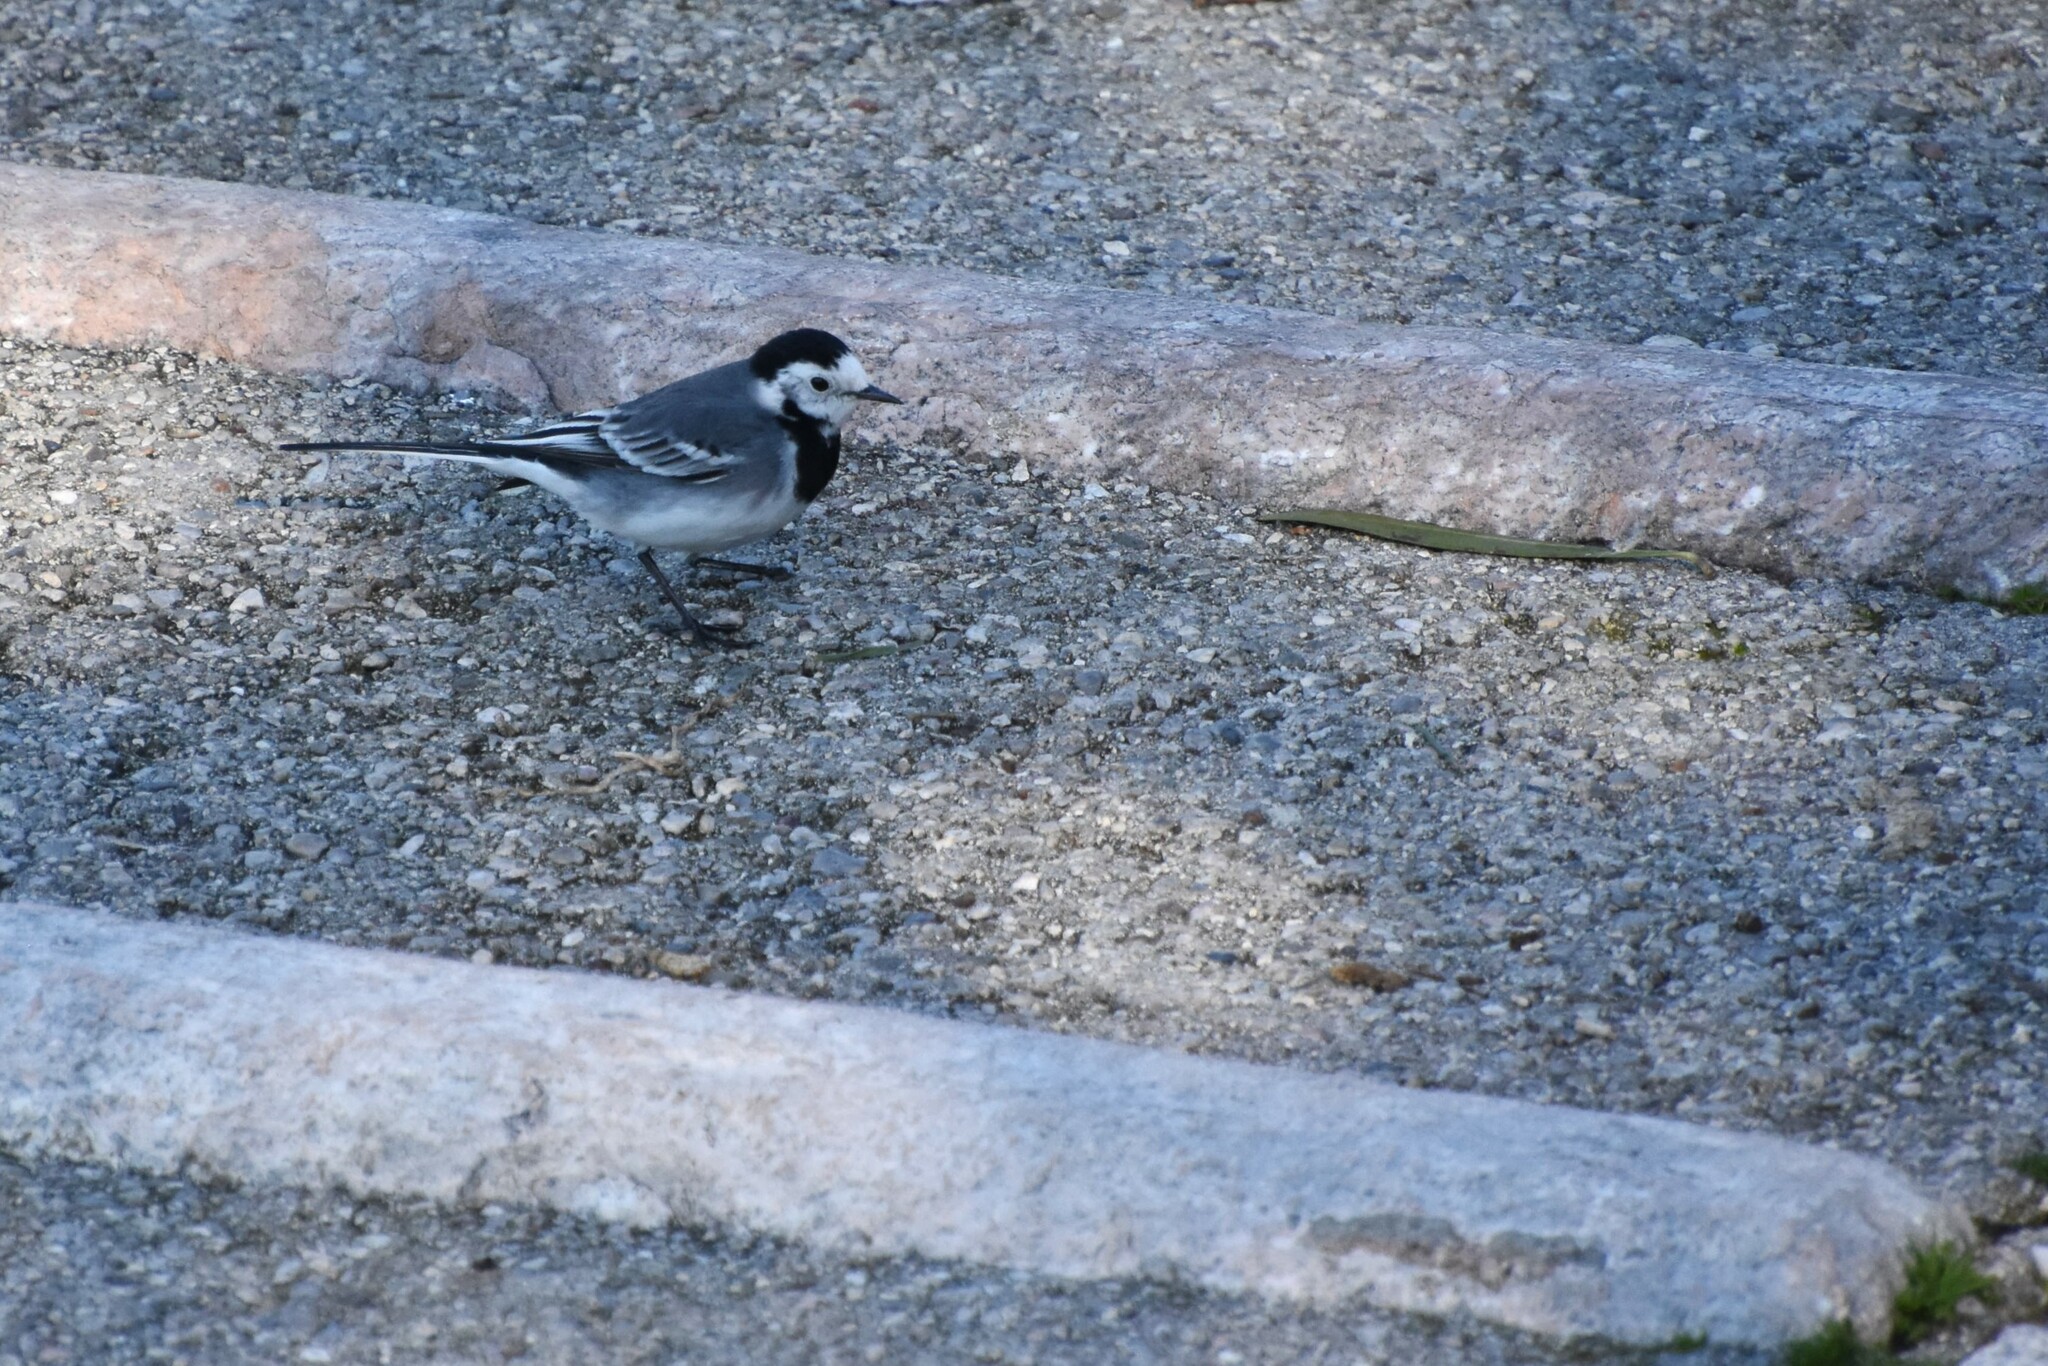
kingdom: Animalia
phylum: Chordata
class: Aves
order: Passeriformes
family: Motacillidae
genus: Motacilla
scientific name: Motacilla alba
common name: White wagtail
